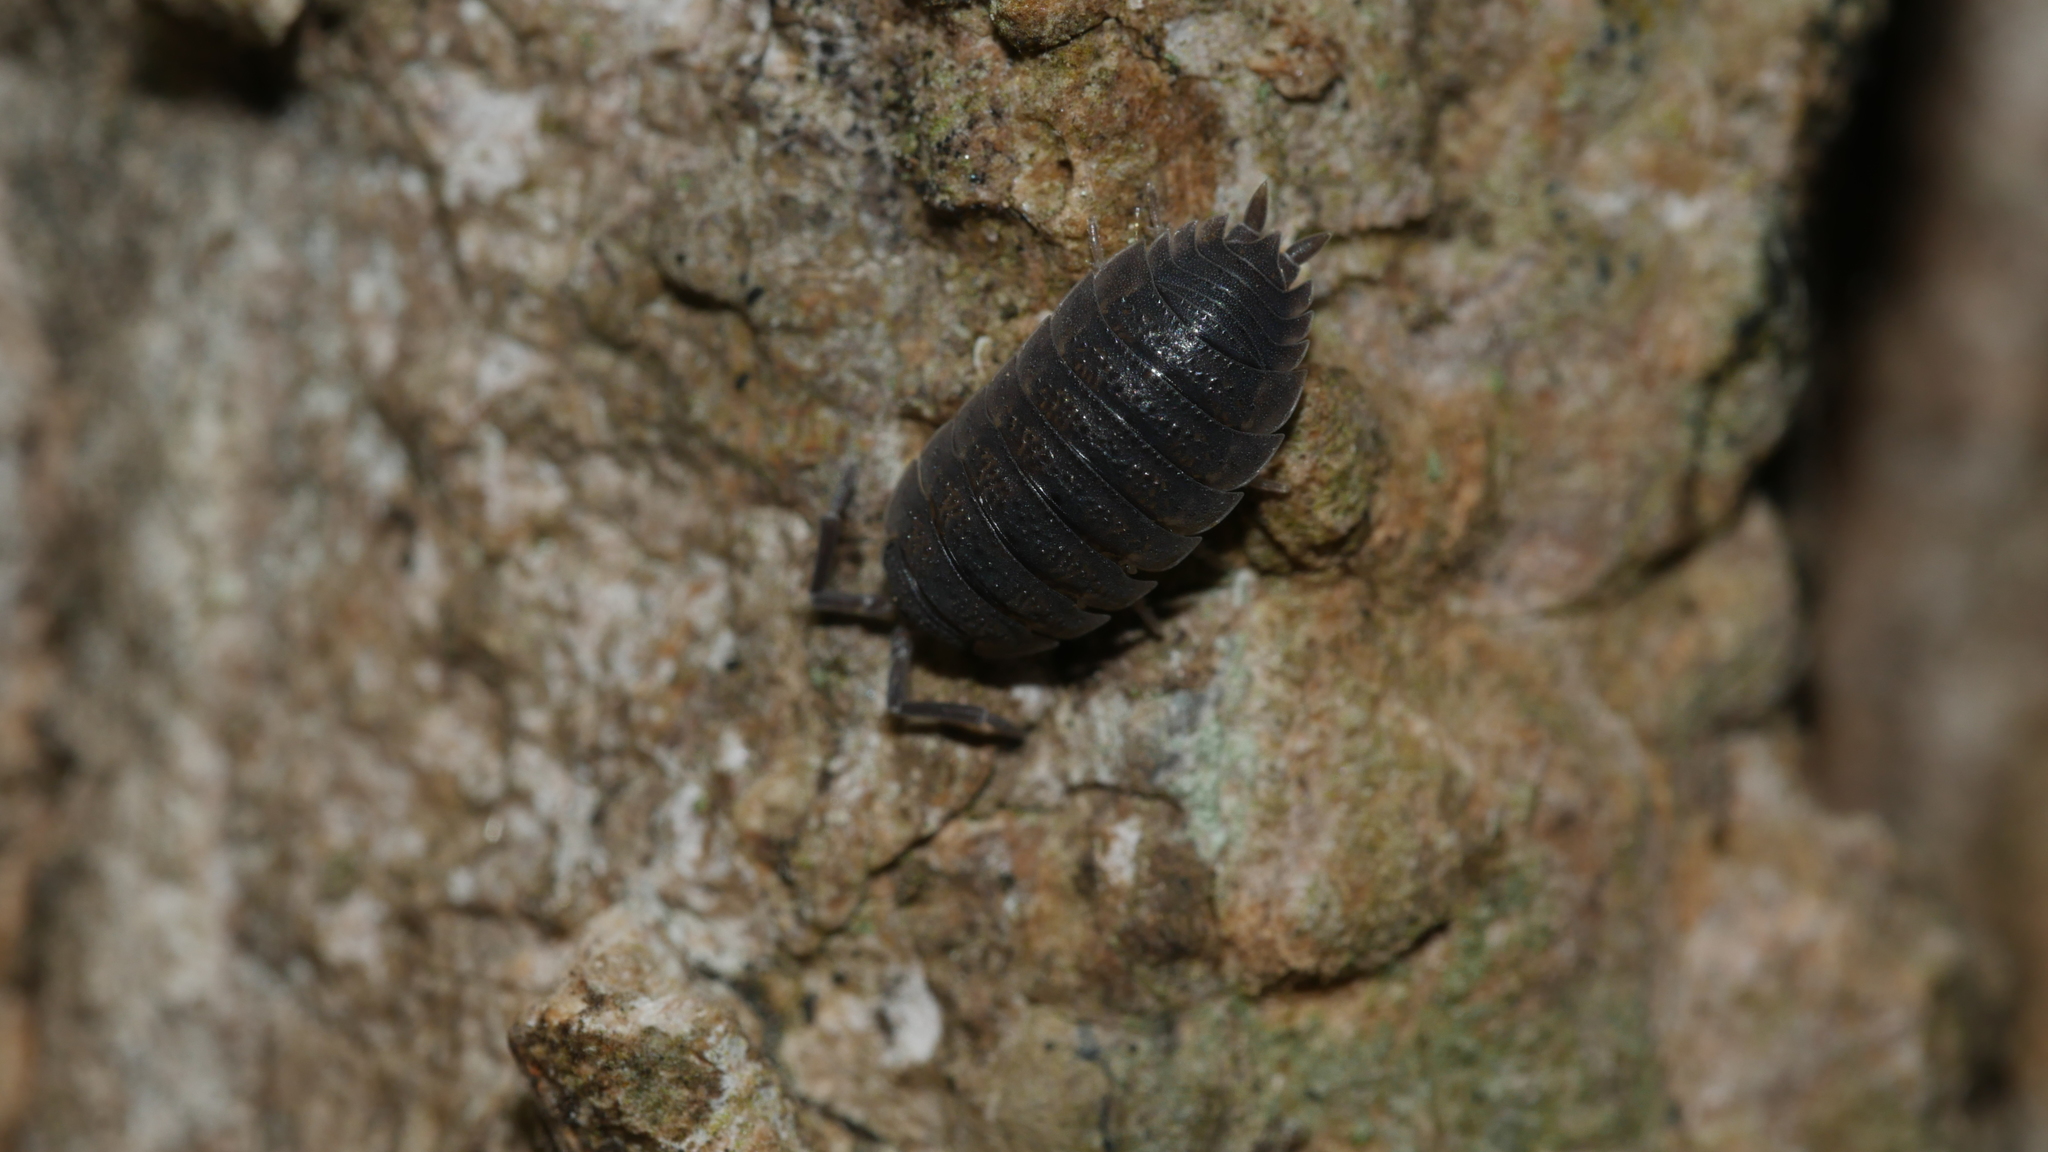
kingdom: Animalia
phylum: Arthropoda
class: Malacostraca
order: Isopoda
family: Porcellionidae
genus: Porcellio
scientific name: Porcellio scaber
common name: Common rough woodlouse
